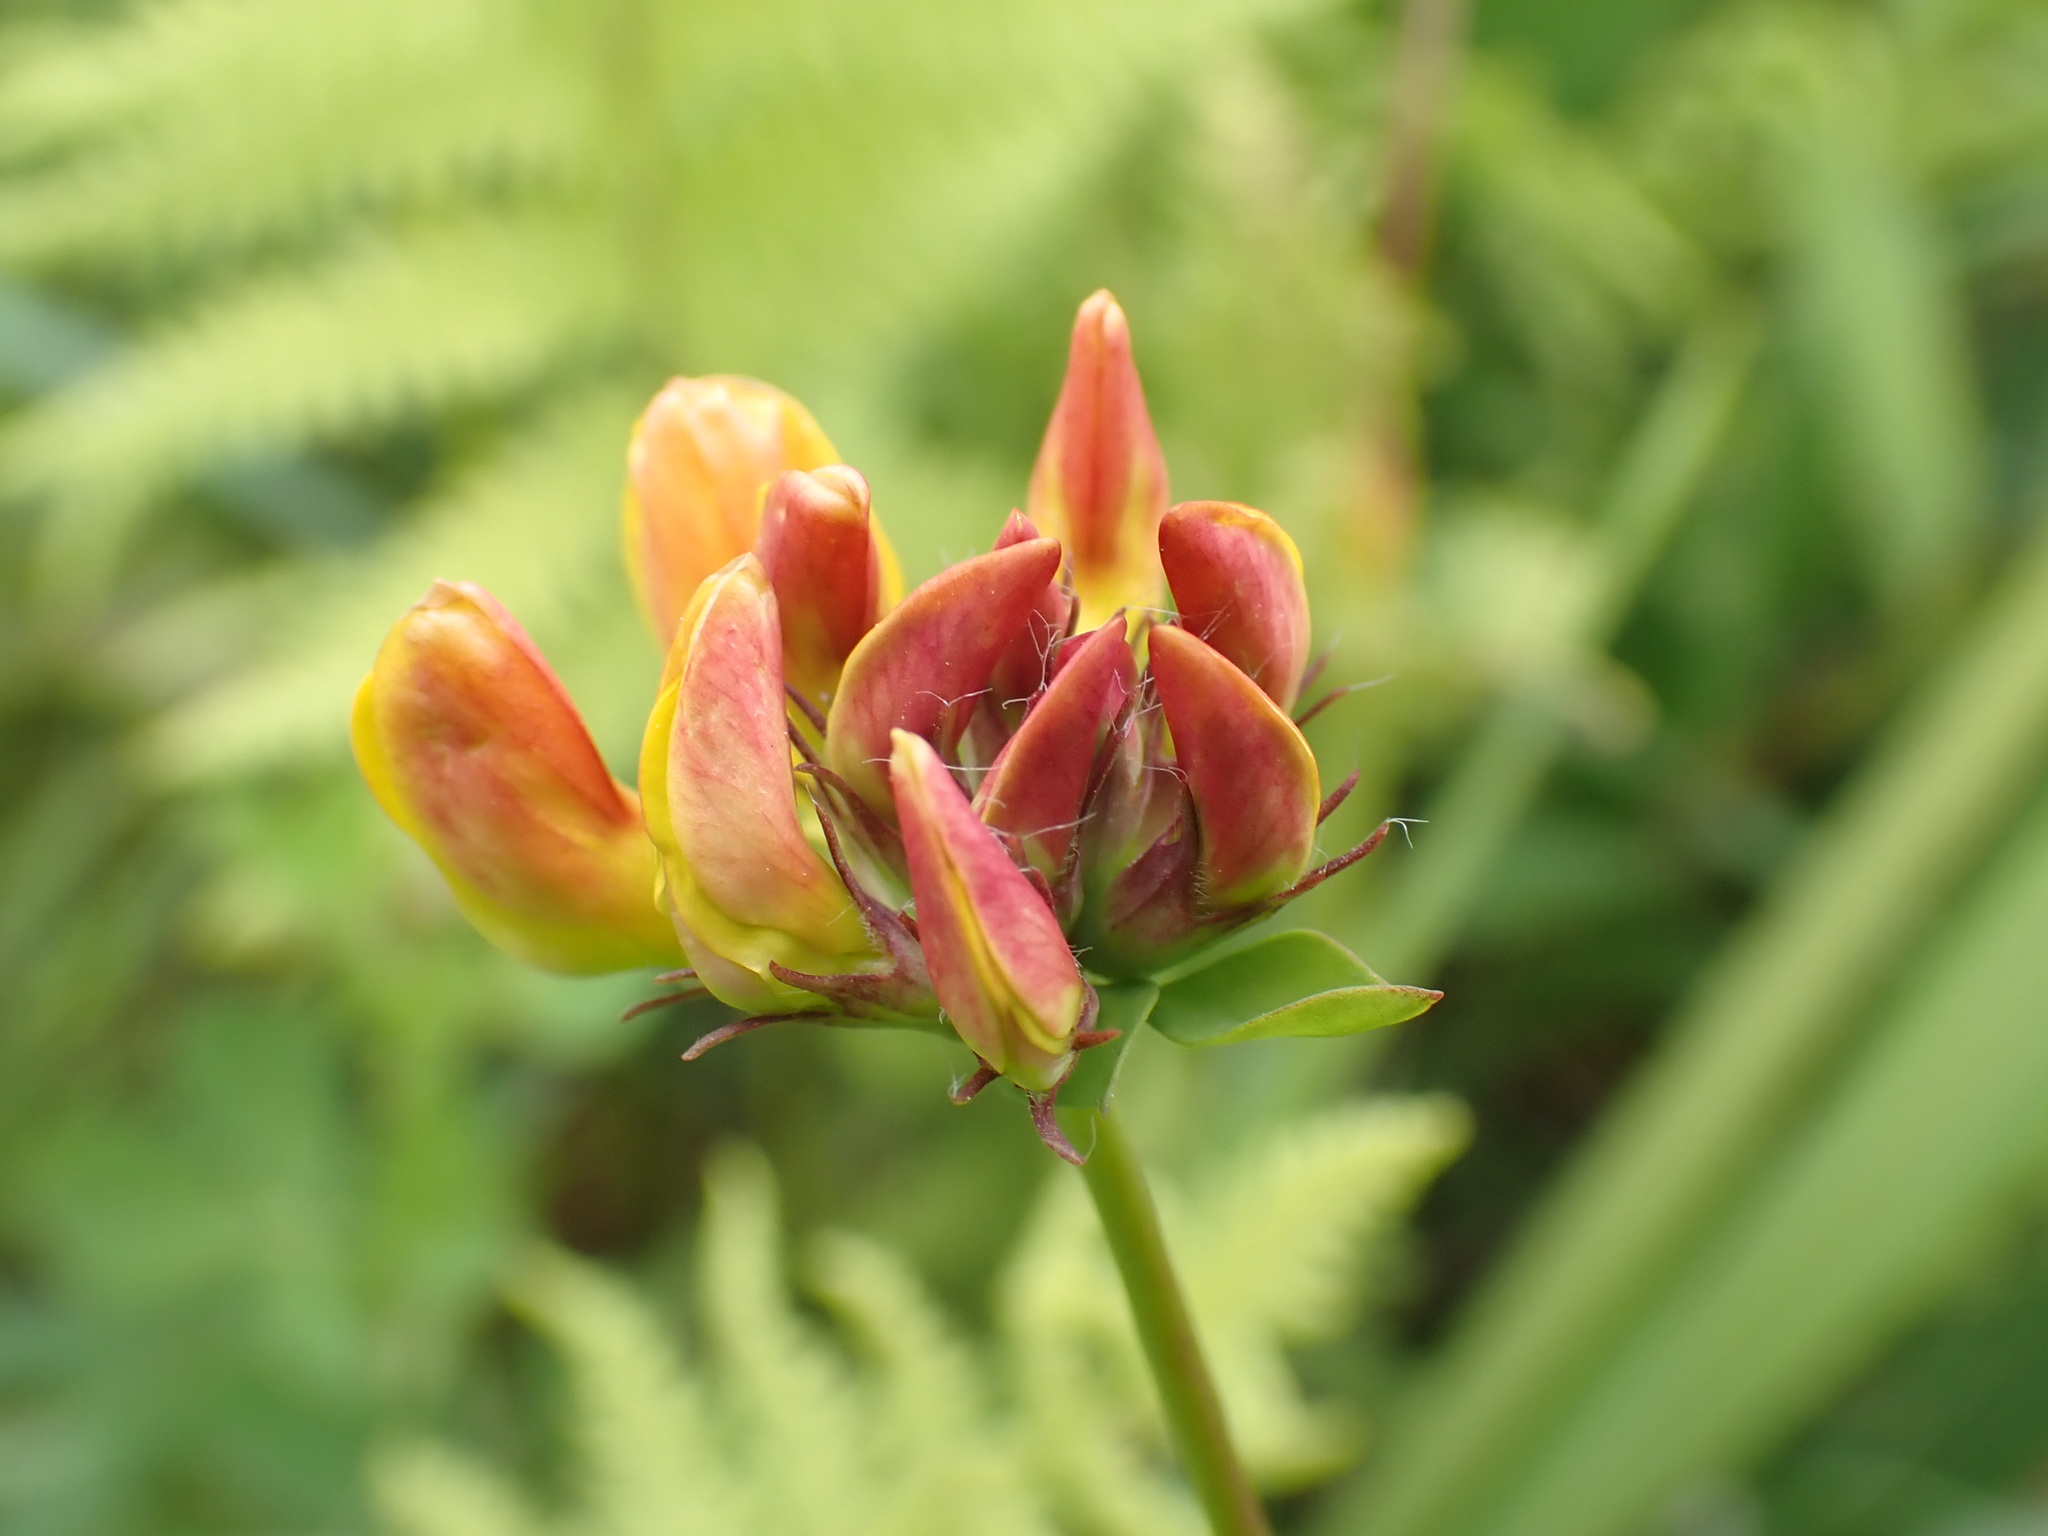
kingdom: Plantae
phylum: Tracheophyta
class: Magnoliopsida
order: Fabales
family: Fabaceae
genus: Lotus
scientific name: Lotus pedunculatus
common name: Greater birdsfoot-trefoil
